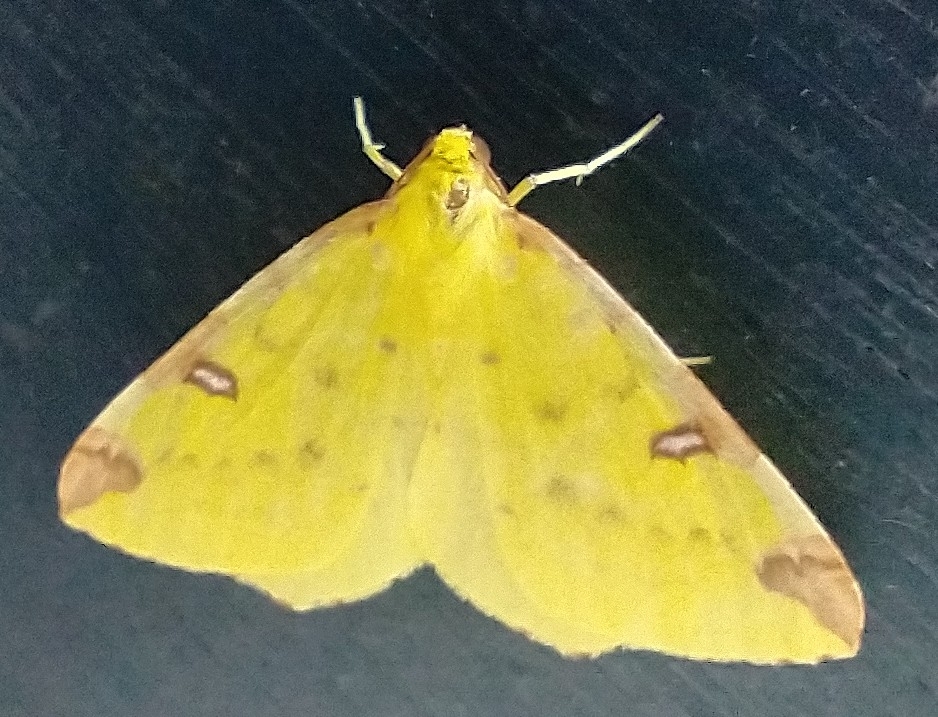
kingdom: Animalia
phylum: Arthropoda
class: Insecta
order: Lepidoptera
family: Geometridae
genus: Opisthograptis
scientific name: Opisthograptis luteolata
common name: Brimstone moth
